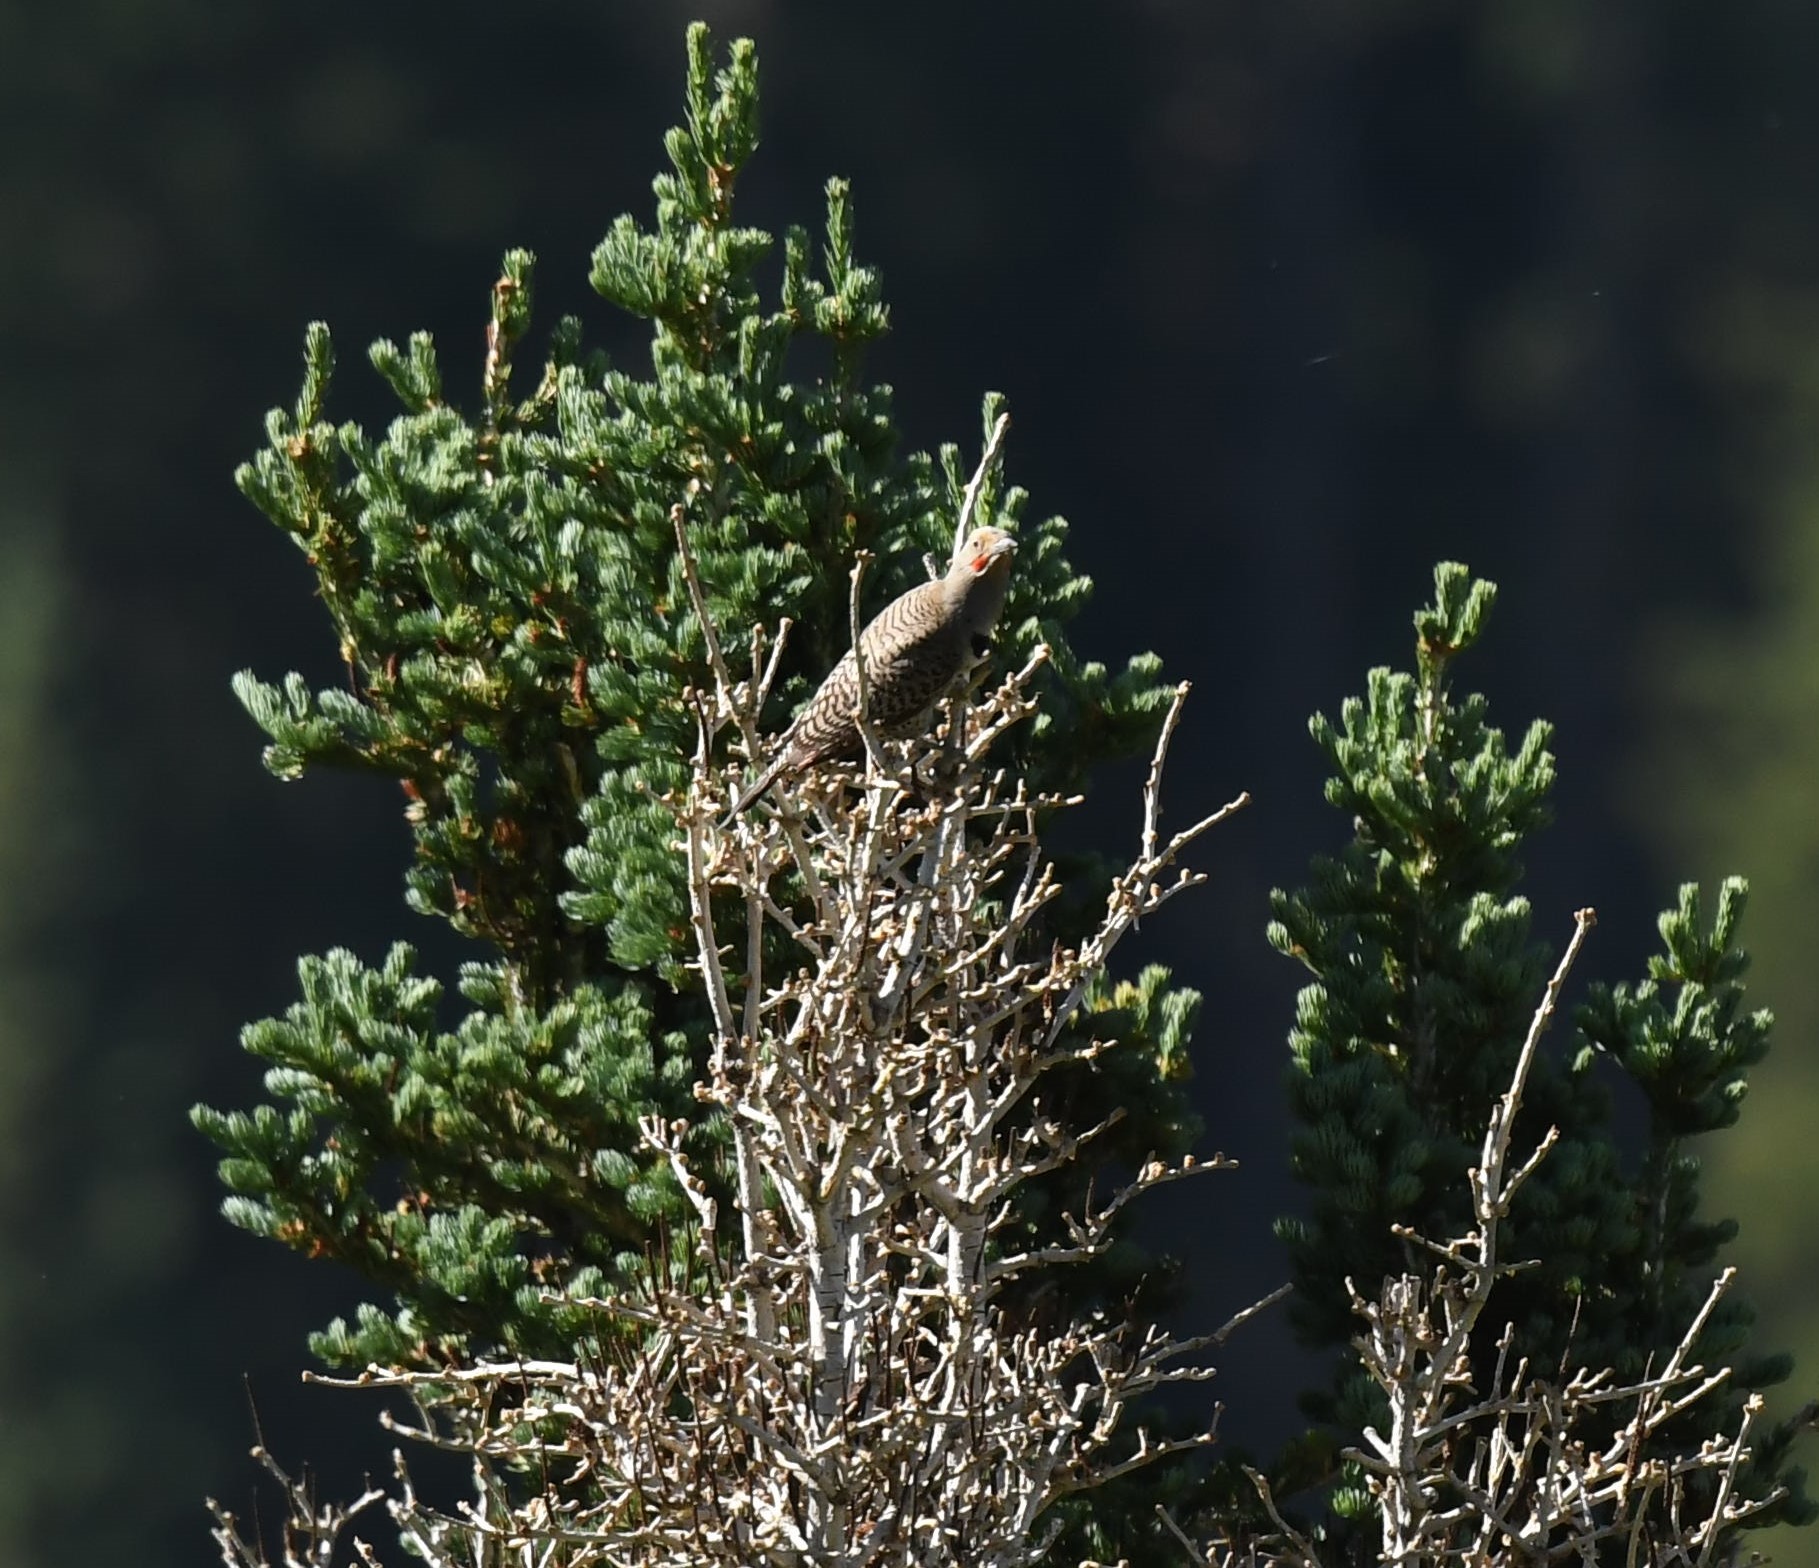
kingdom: Animalia
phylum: Chordata
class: Aves
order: Piciformes
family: Picidae
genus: Colaptes
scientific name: Colaptes auratus
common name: Northern flicker
